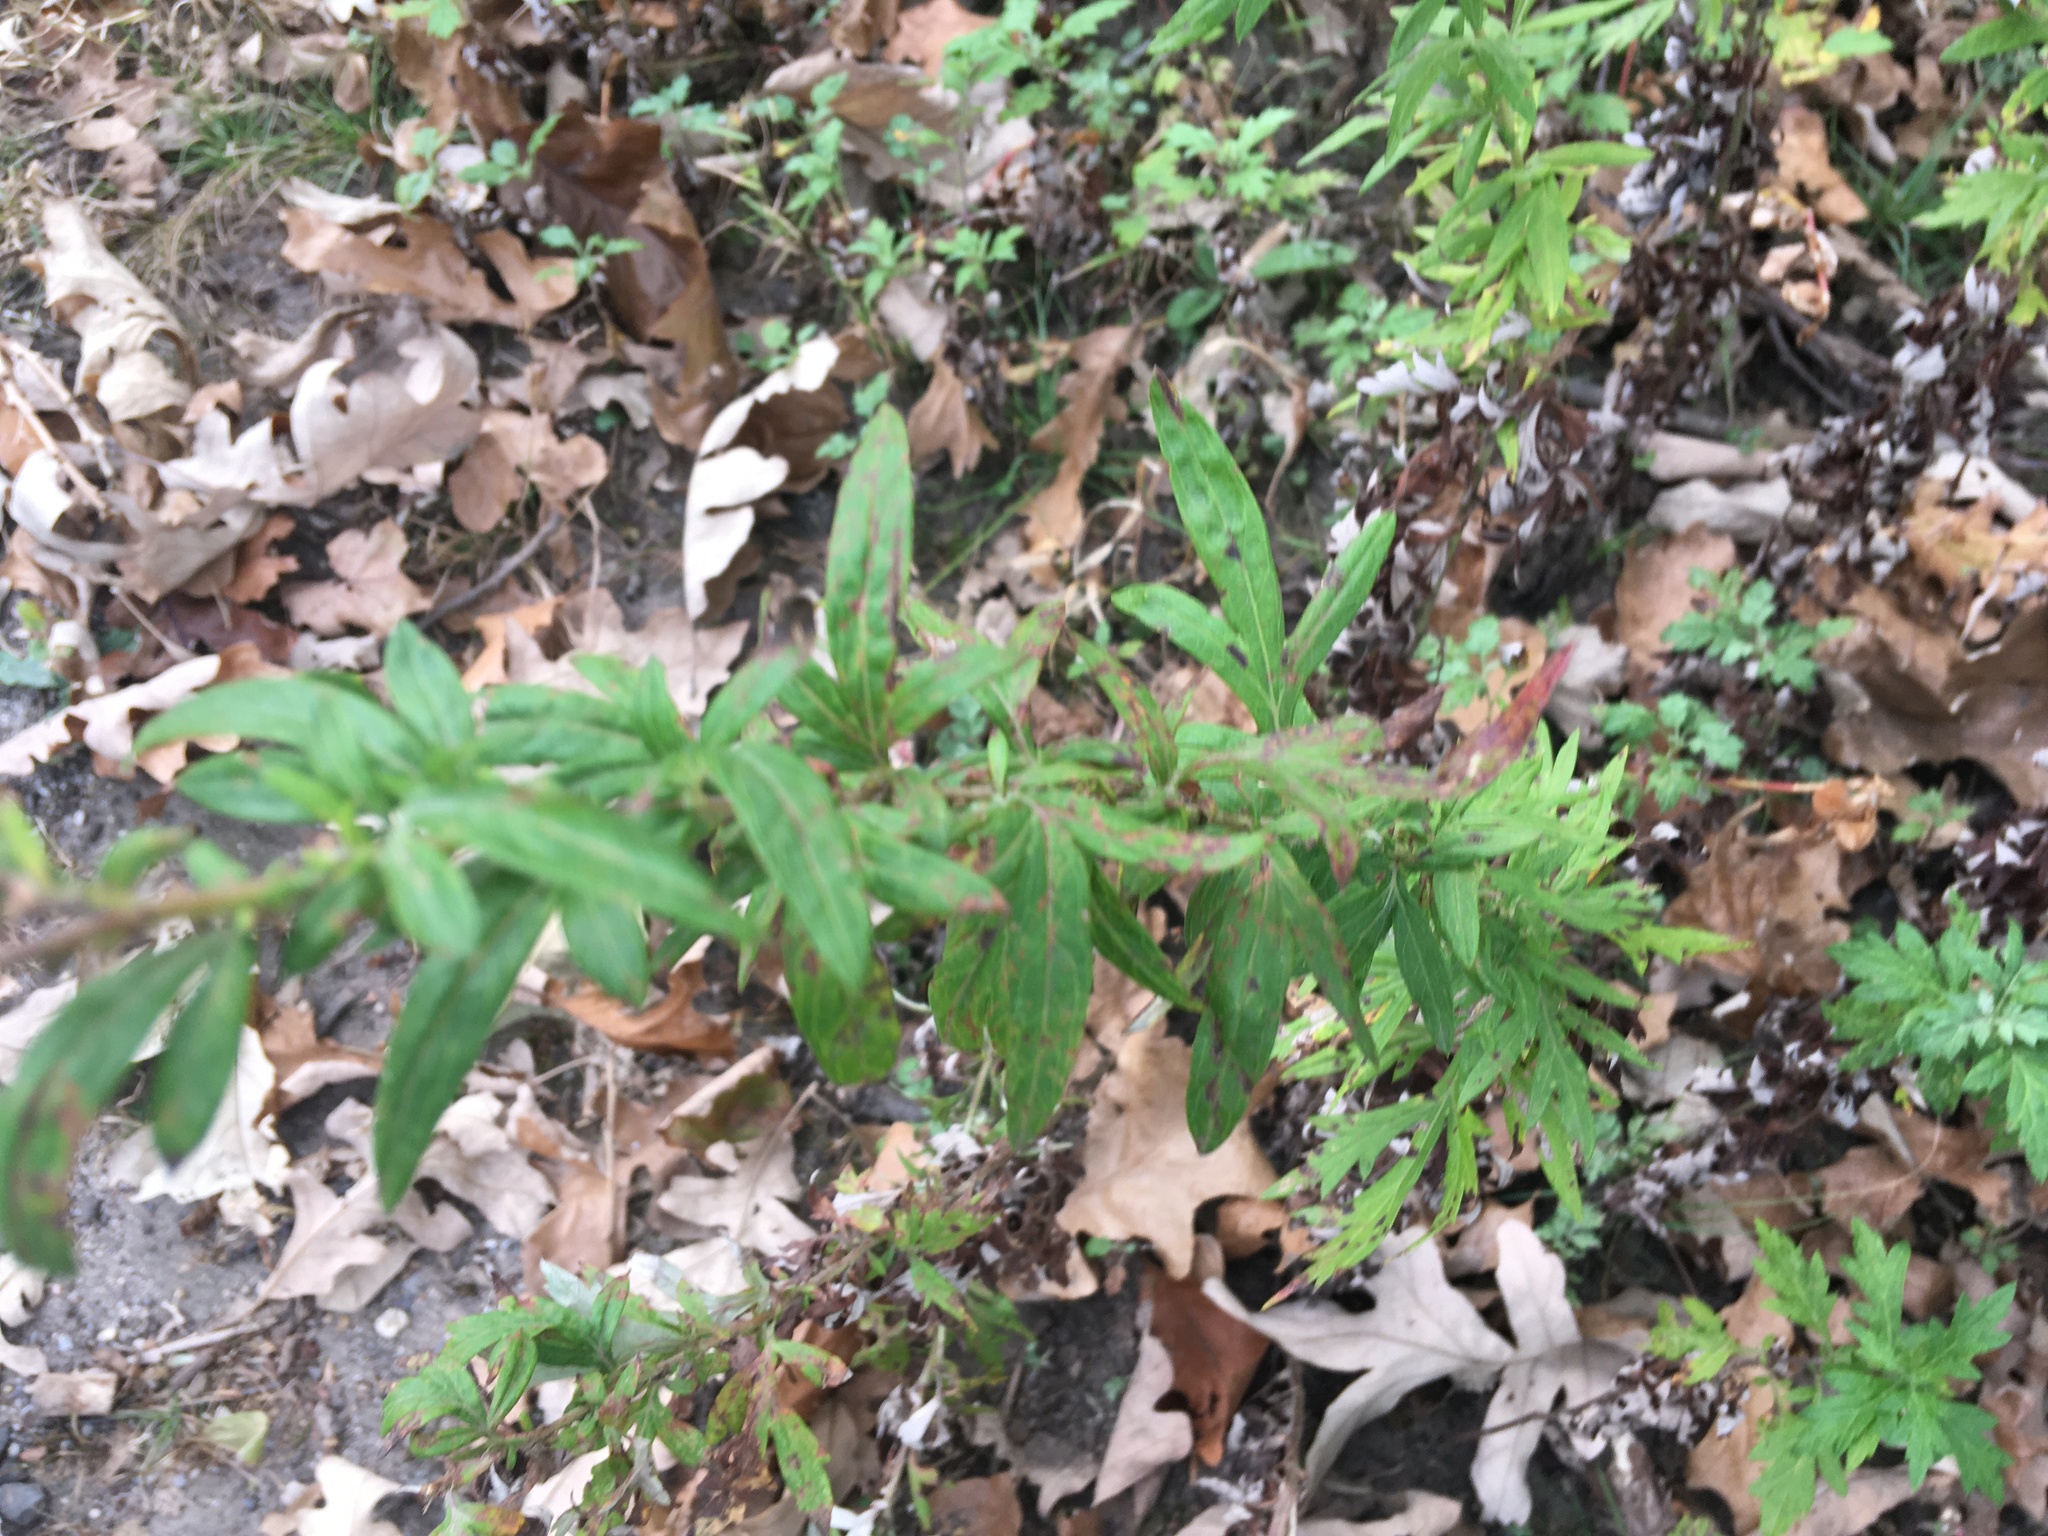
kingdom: Plantae
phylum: Tracheophyta
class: Magnoliopsida
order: Asterales
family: Asteraceae
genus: Artemisia
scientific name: Artemisia vulgaris
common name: Mugwort
